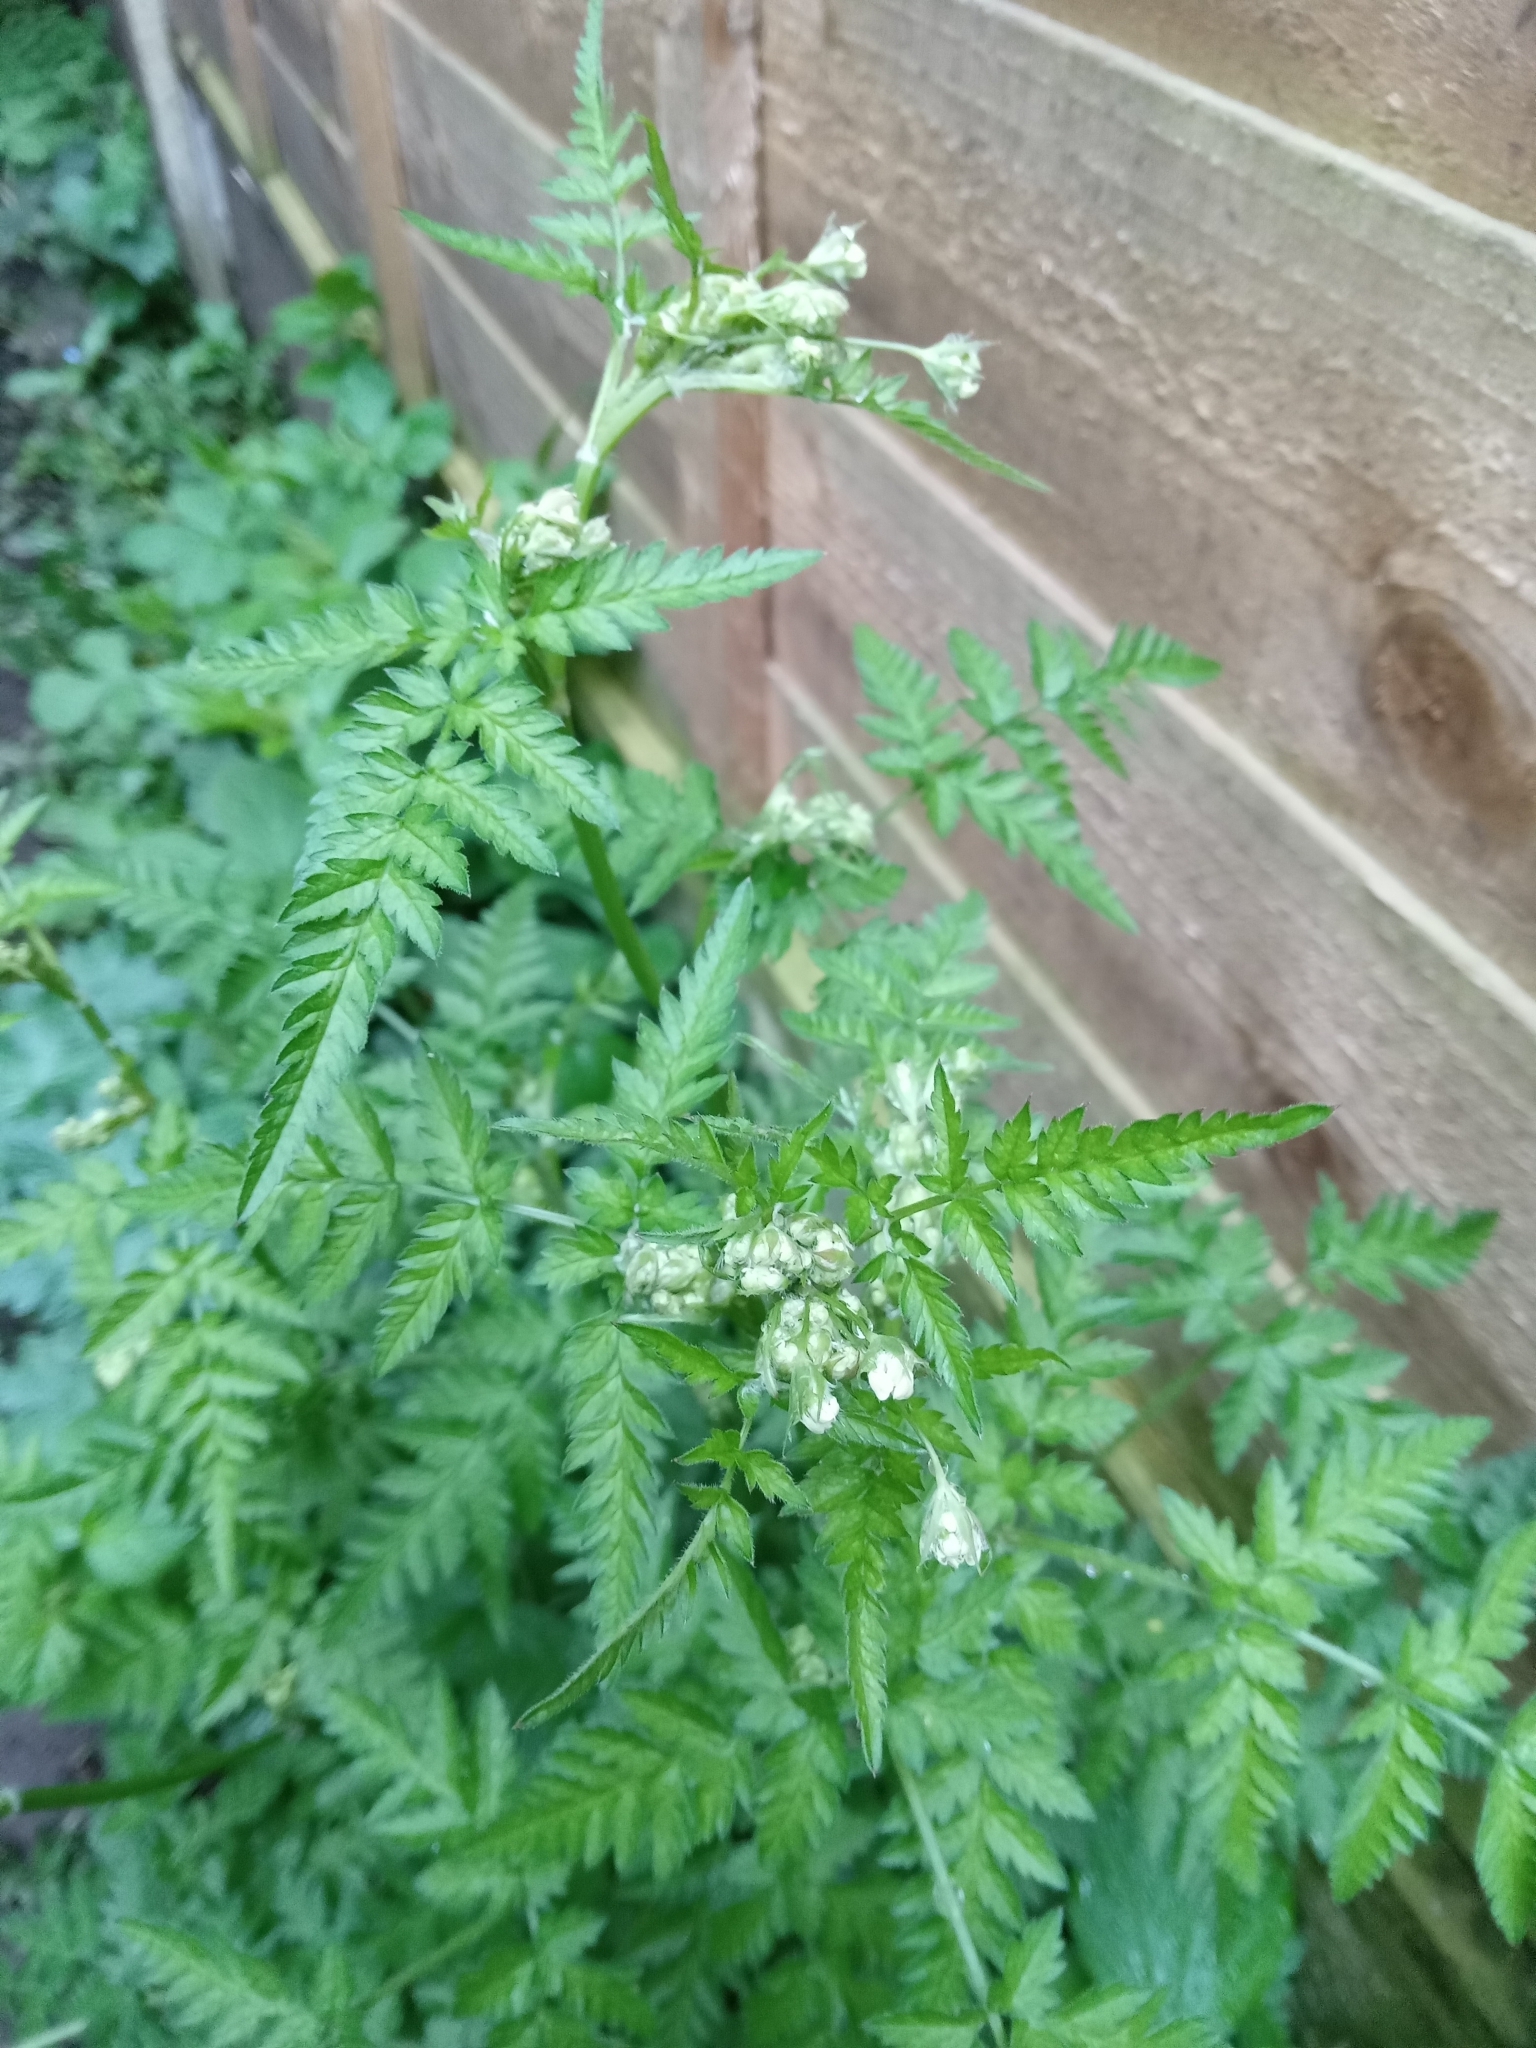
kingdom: Plantae
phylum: Tracheophyta
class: Magnoliopsida
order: Apiales
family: Apiaceae
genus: Anthriscus
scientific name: Anthriscus sylvestris
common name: Cow parsley
